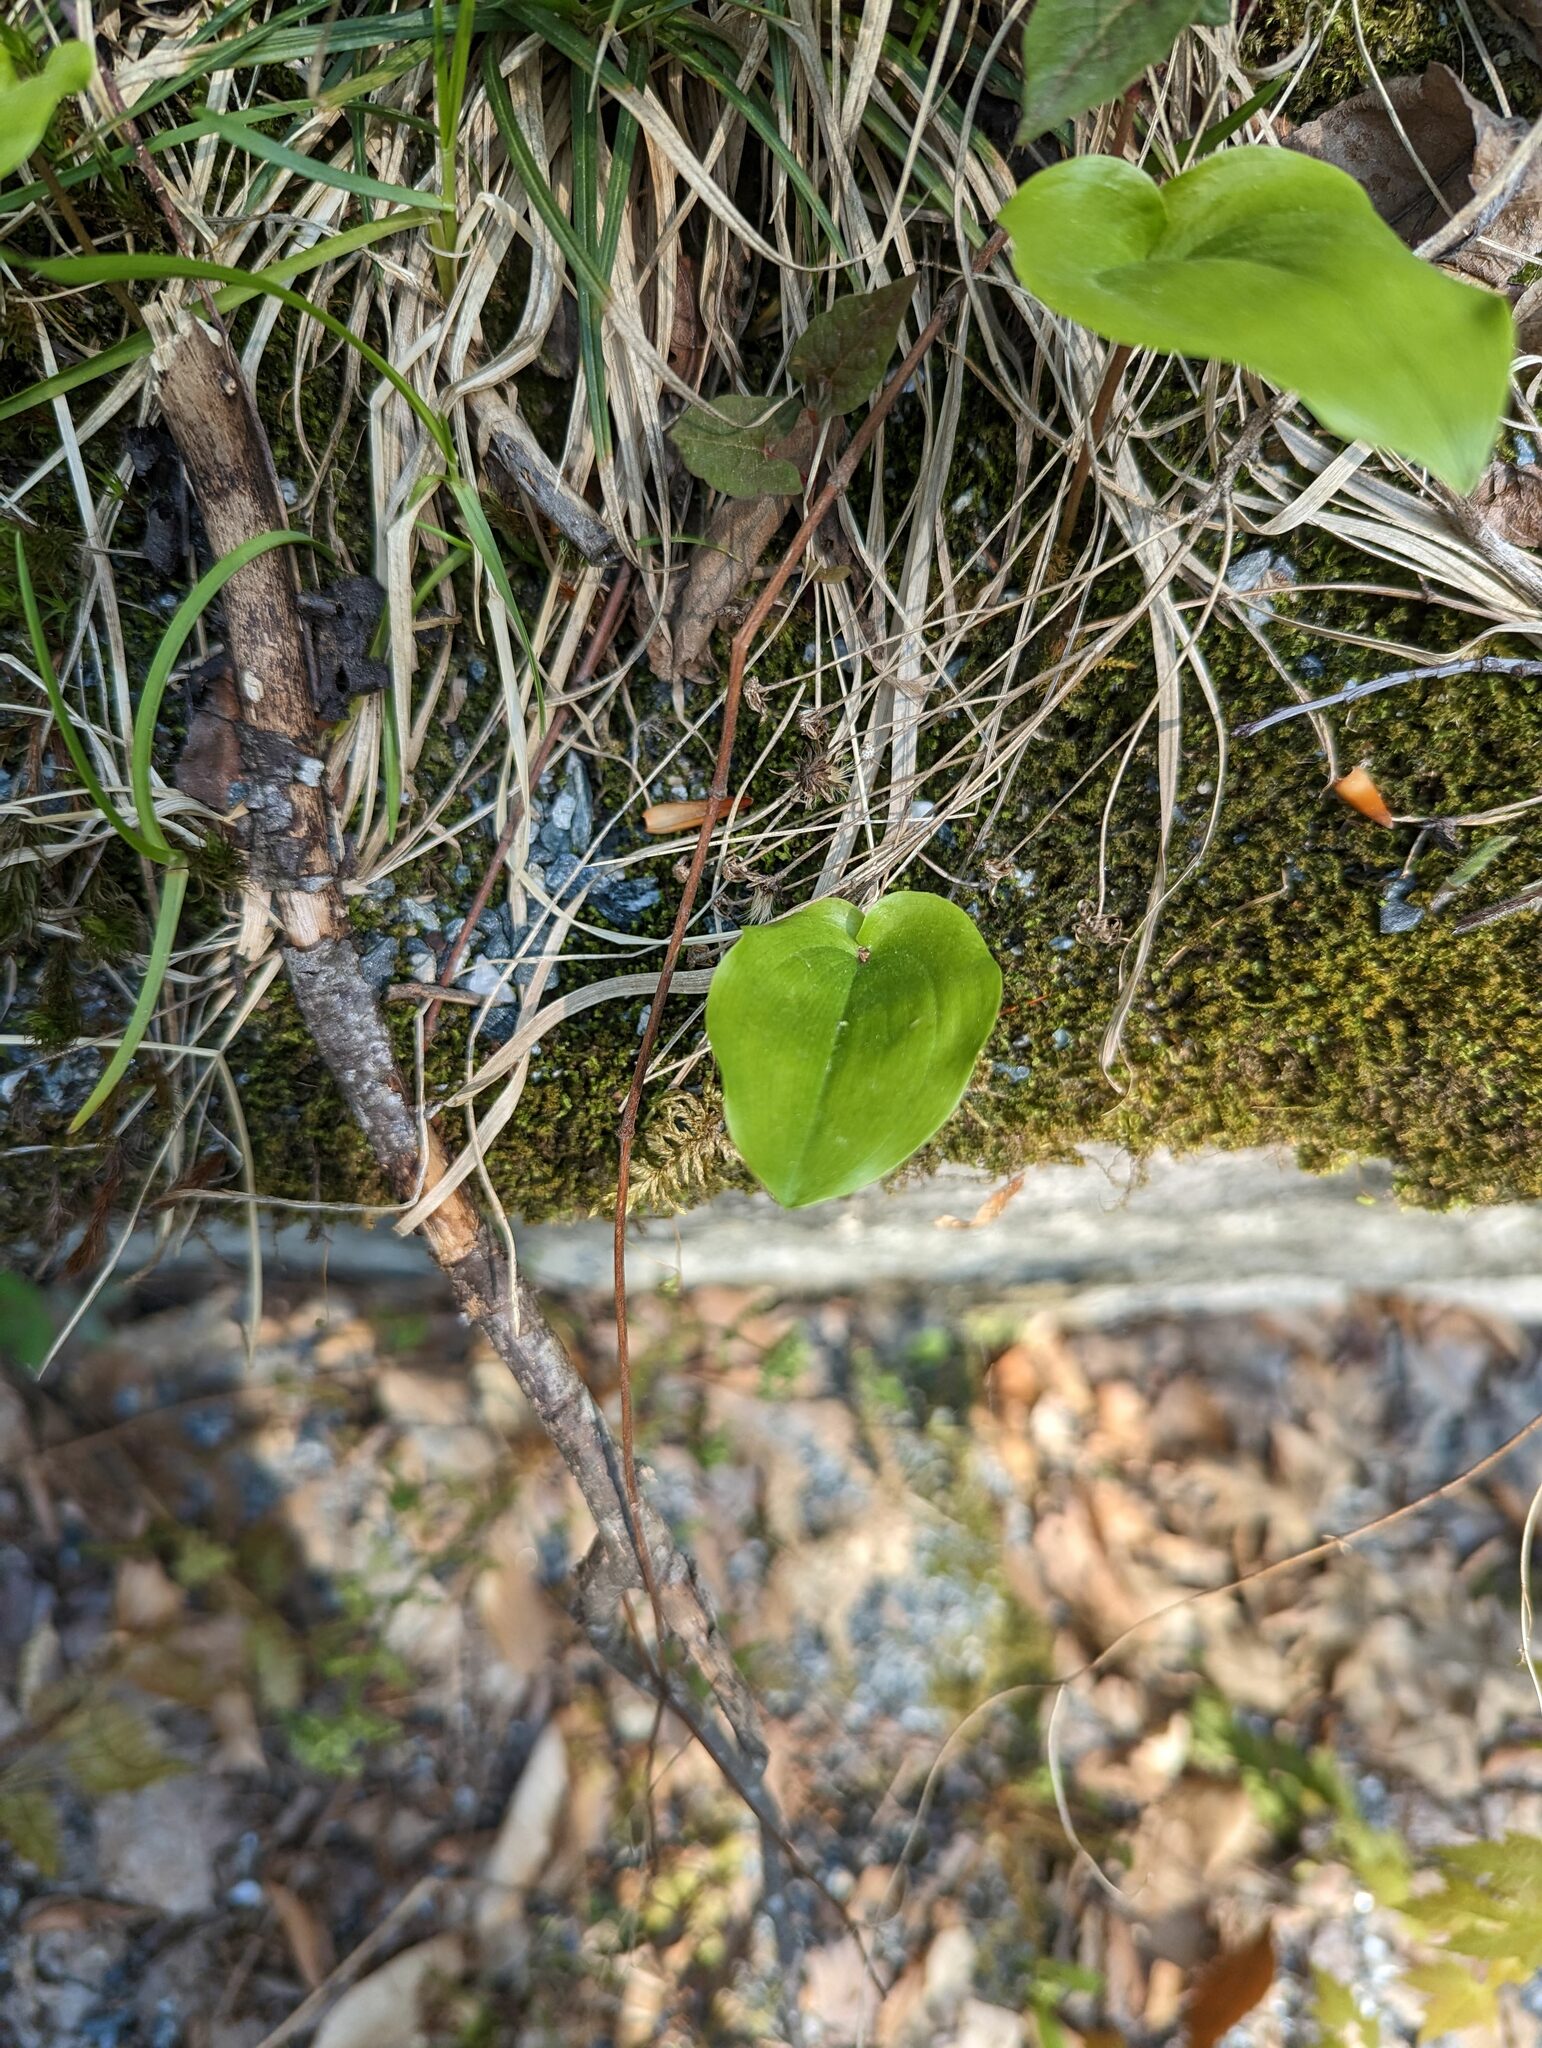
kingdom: Plantae
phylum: Tracheophyta
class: Liliopsida
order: Asparagales
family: Asparagaceae
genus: Maianthemum
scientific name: Maianthemum canadense
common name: False lily-of-the-valley
